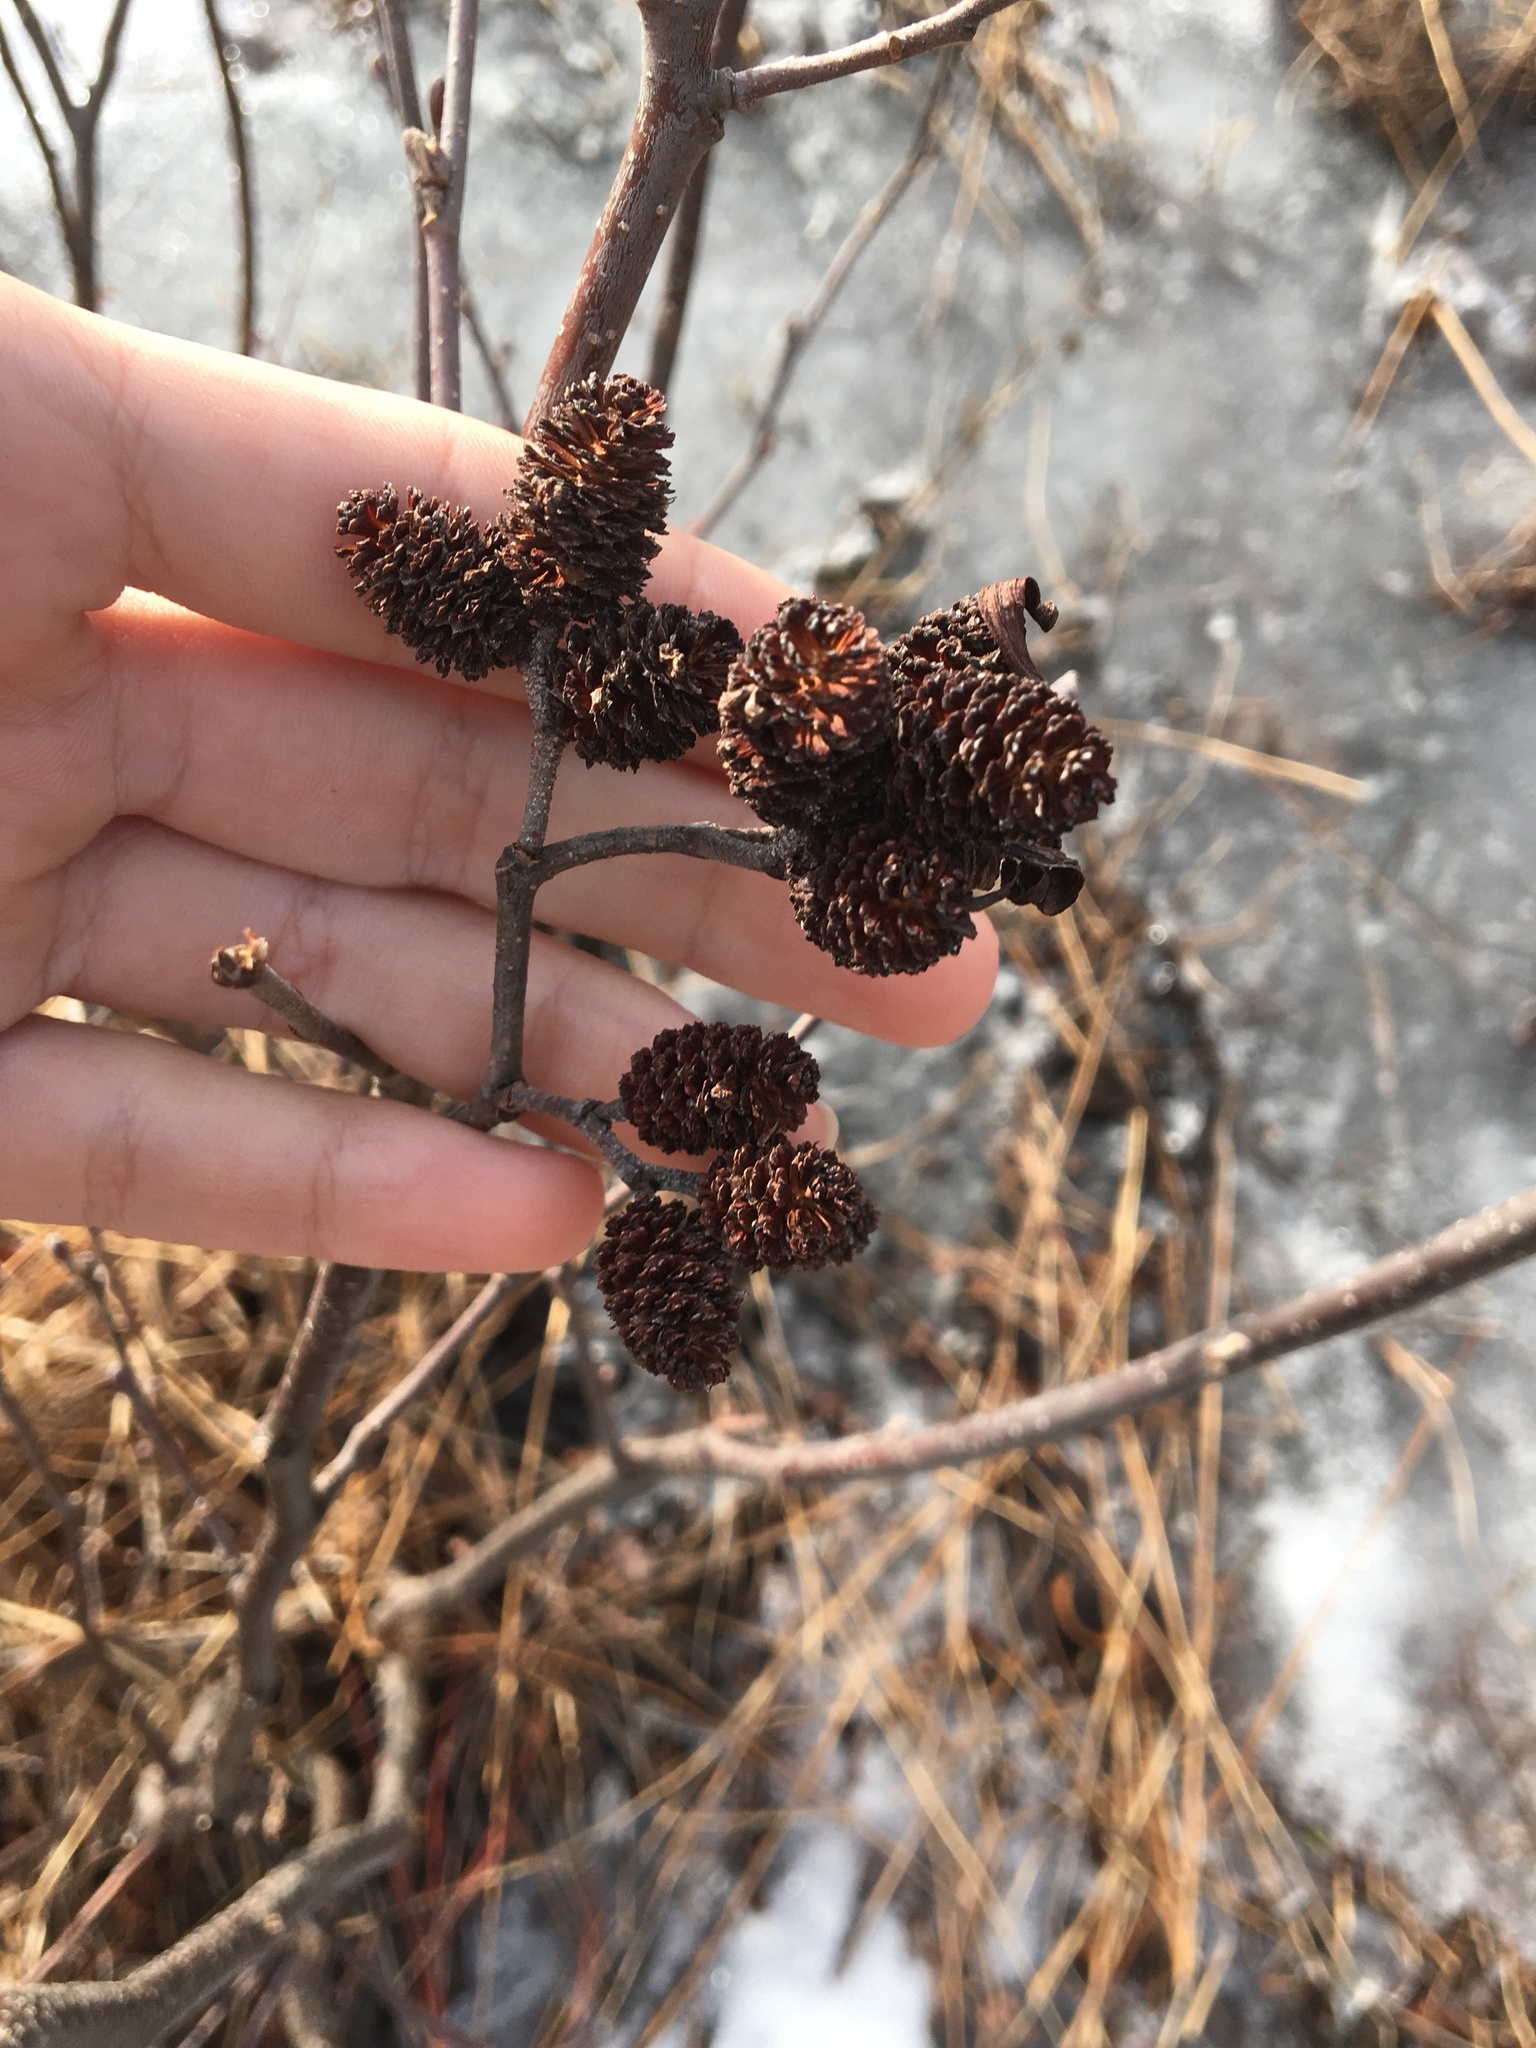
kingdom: Plantae
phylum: Tracheophyta
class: Magnoliopsida
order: Fagales
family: Betulaceae
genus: Alnus
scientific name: Alnus incana
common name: Grey alder
